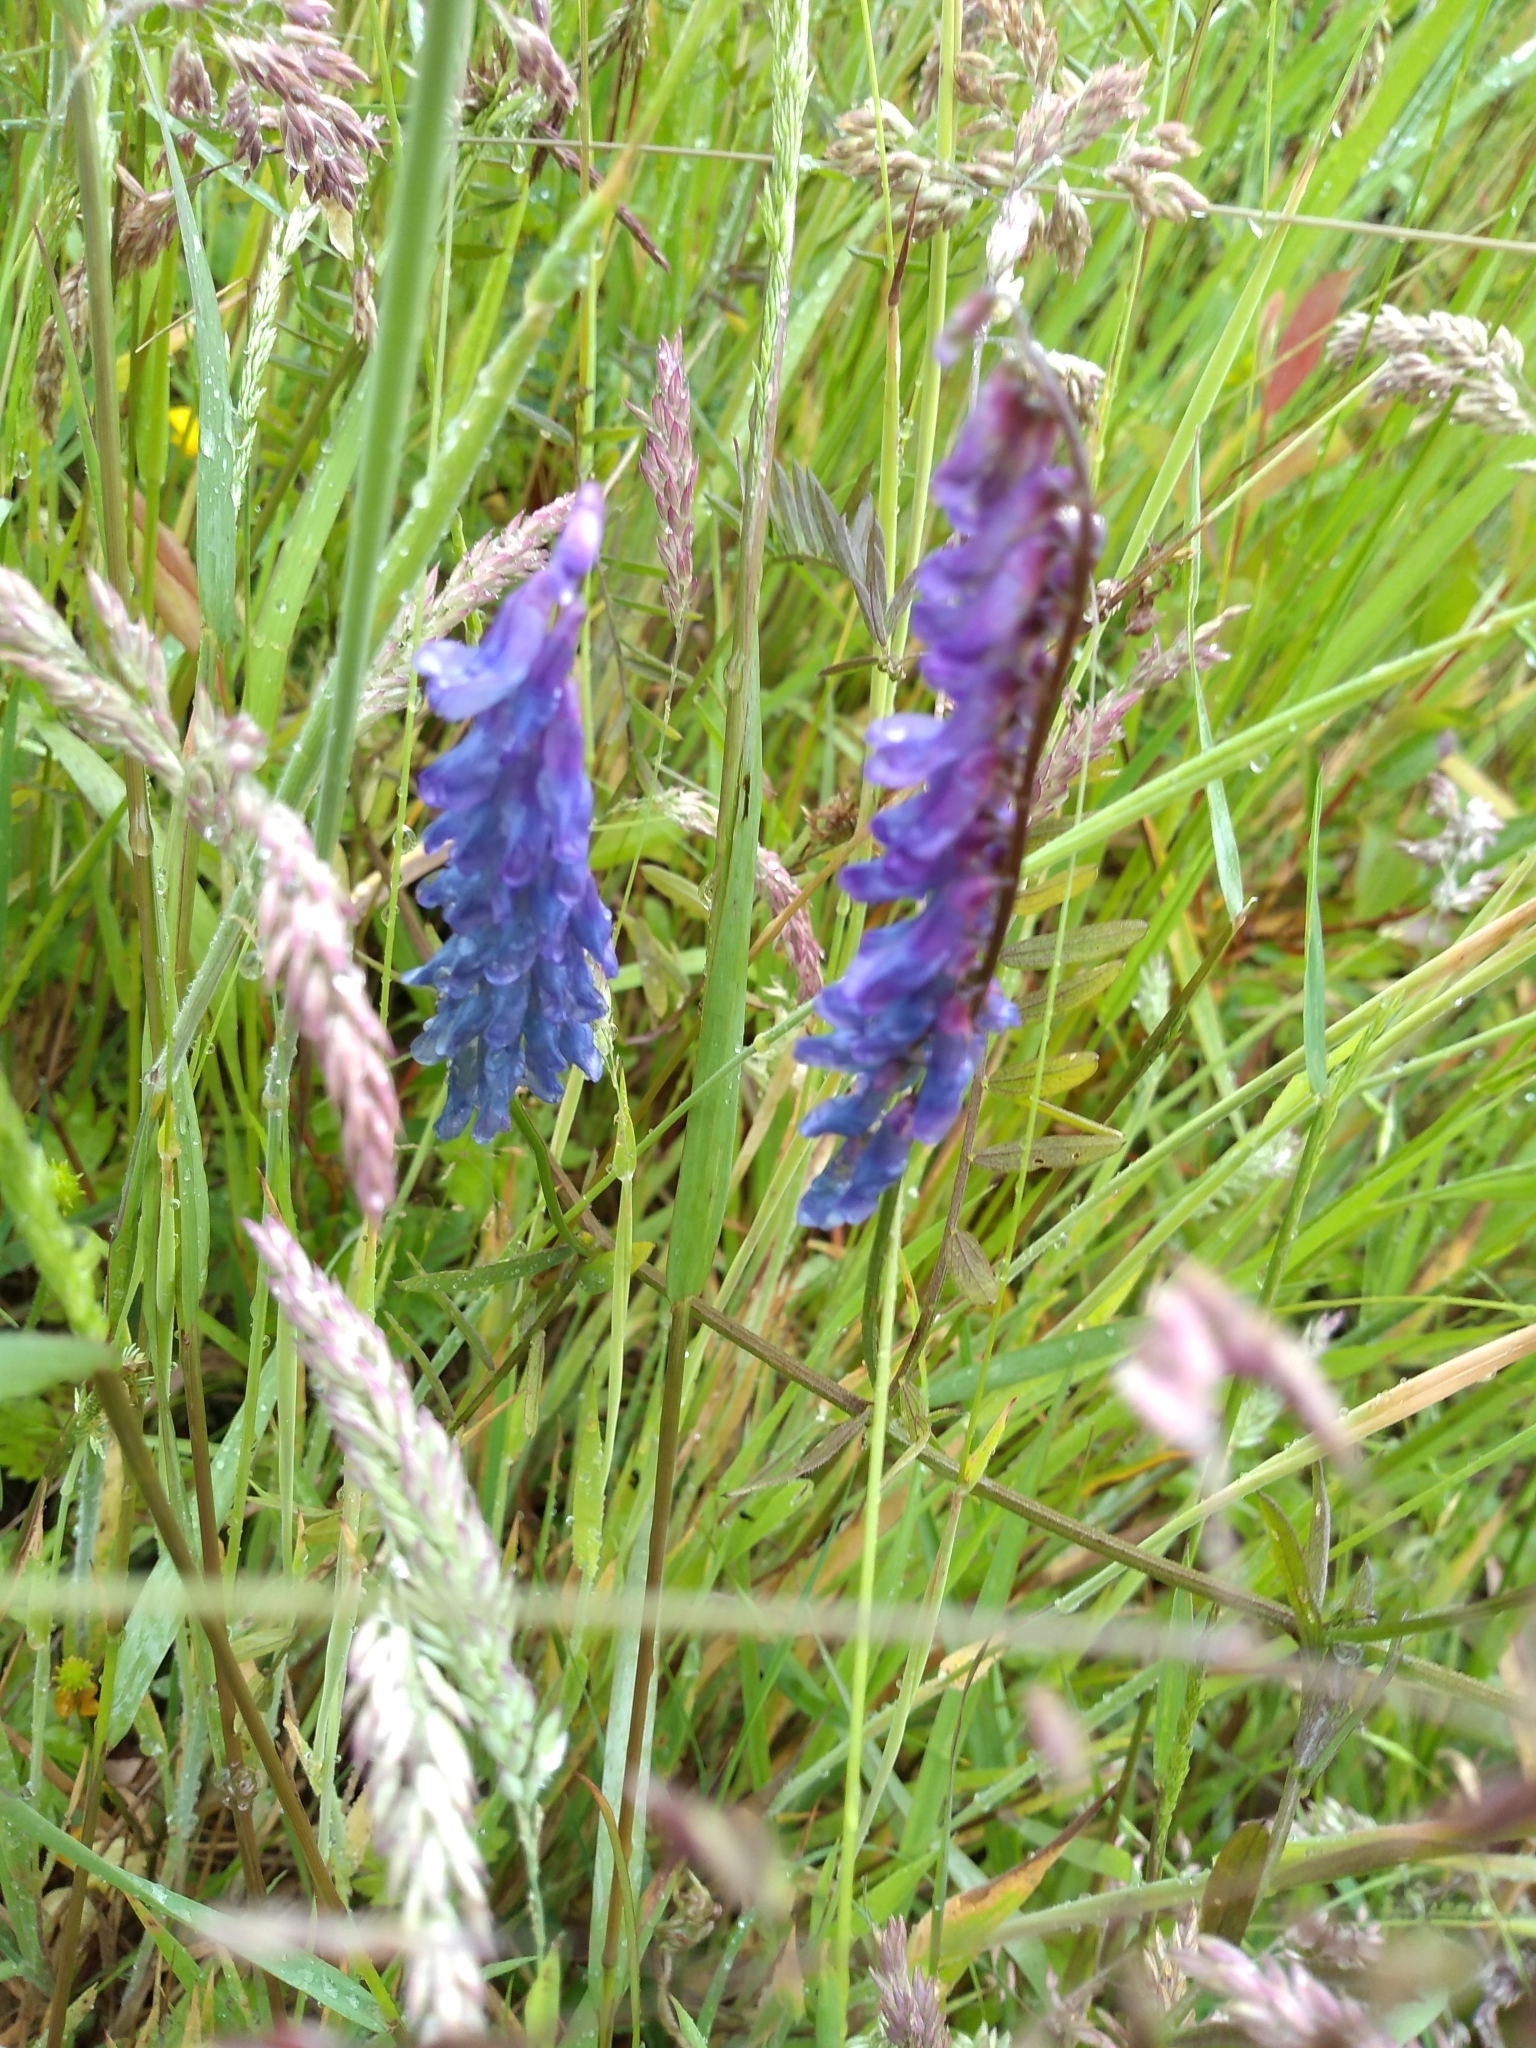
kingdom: Plantae
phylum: Tracheophyta
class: Magnoliopsida
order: Fabales
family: Fabaceae
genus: Vicia
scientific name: Vicia cracca
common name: Bird vetch
